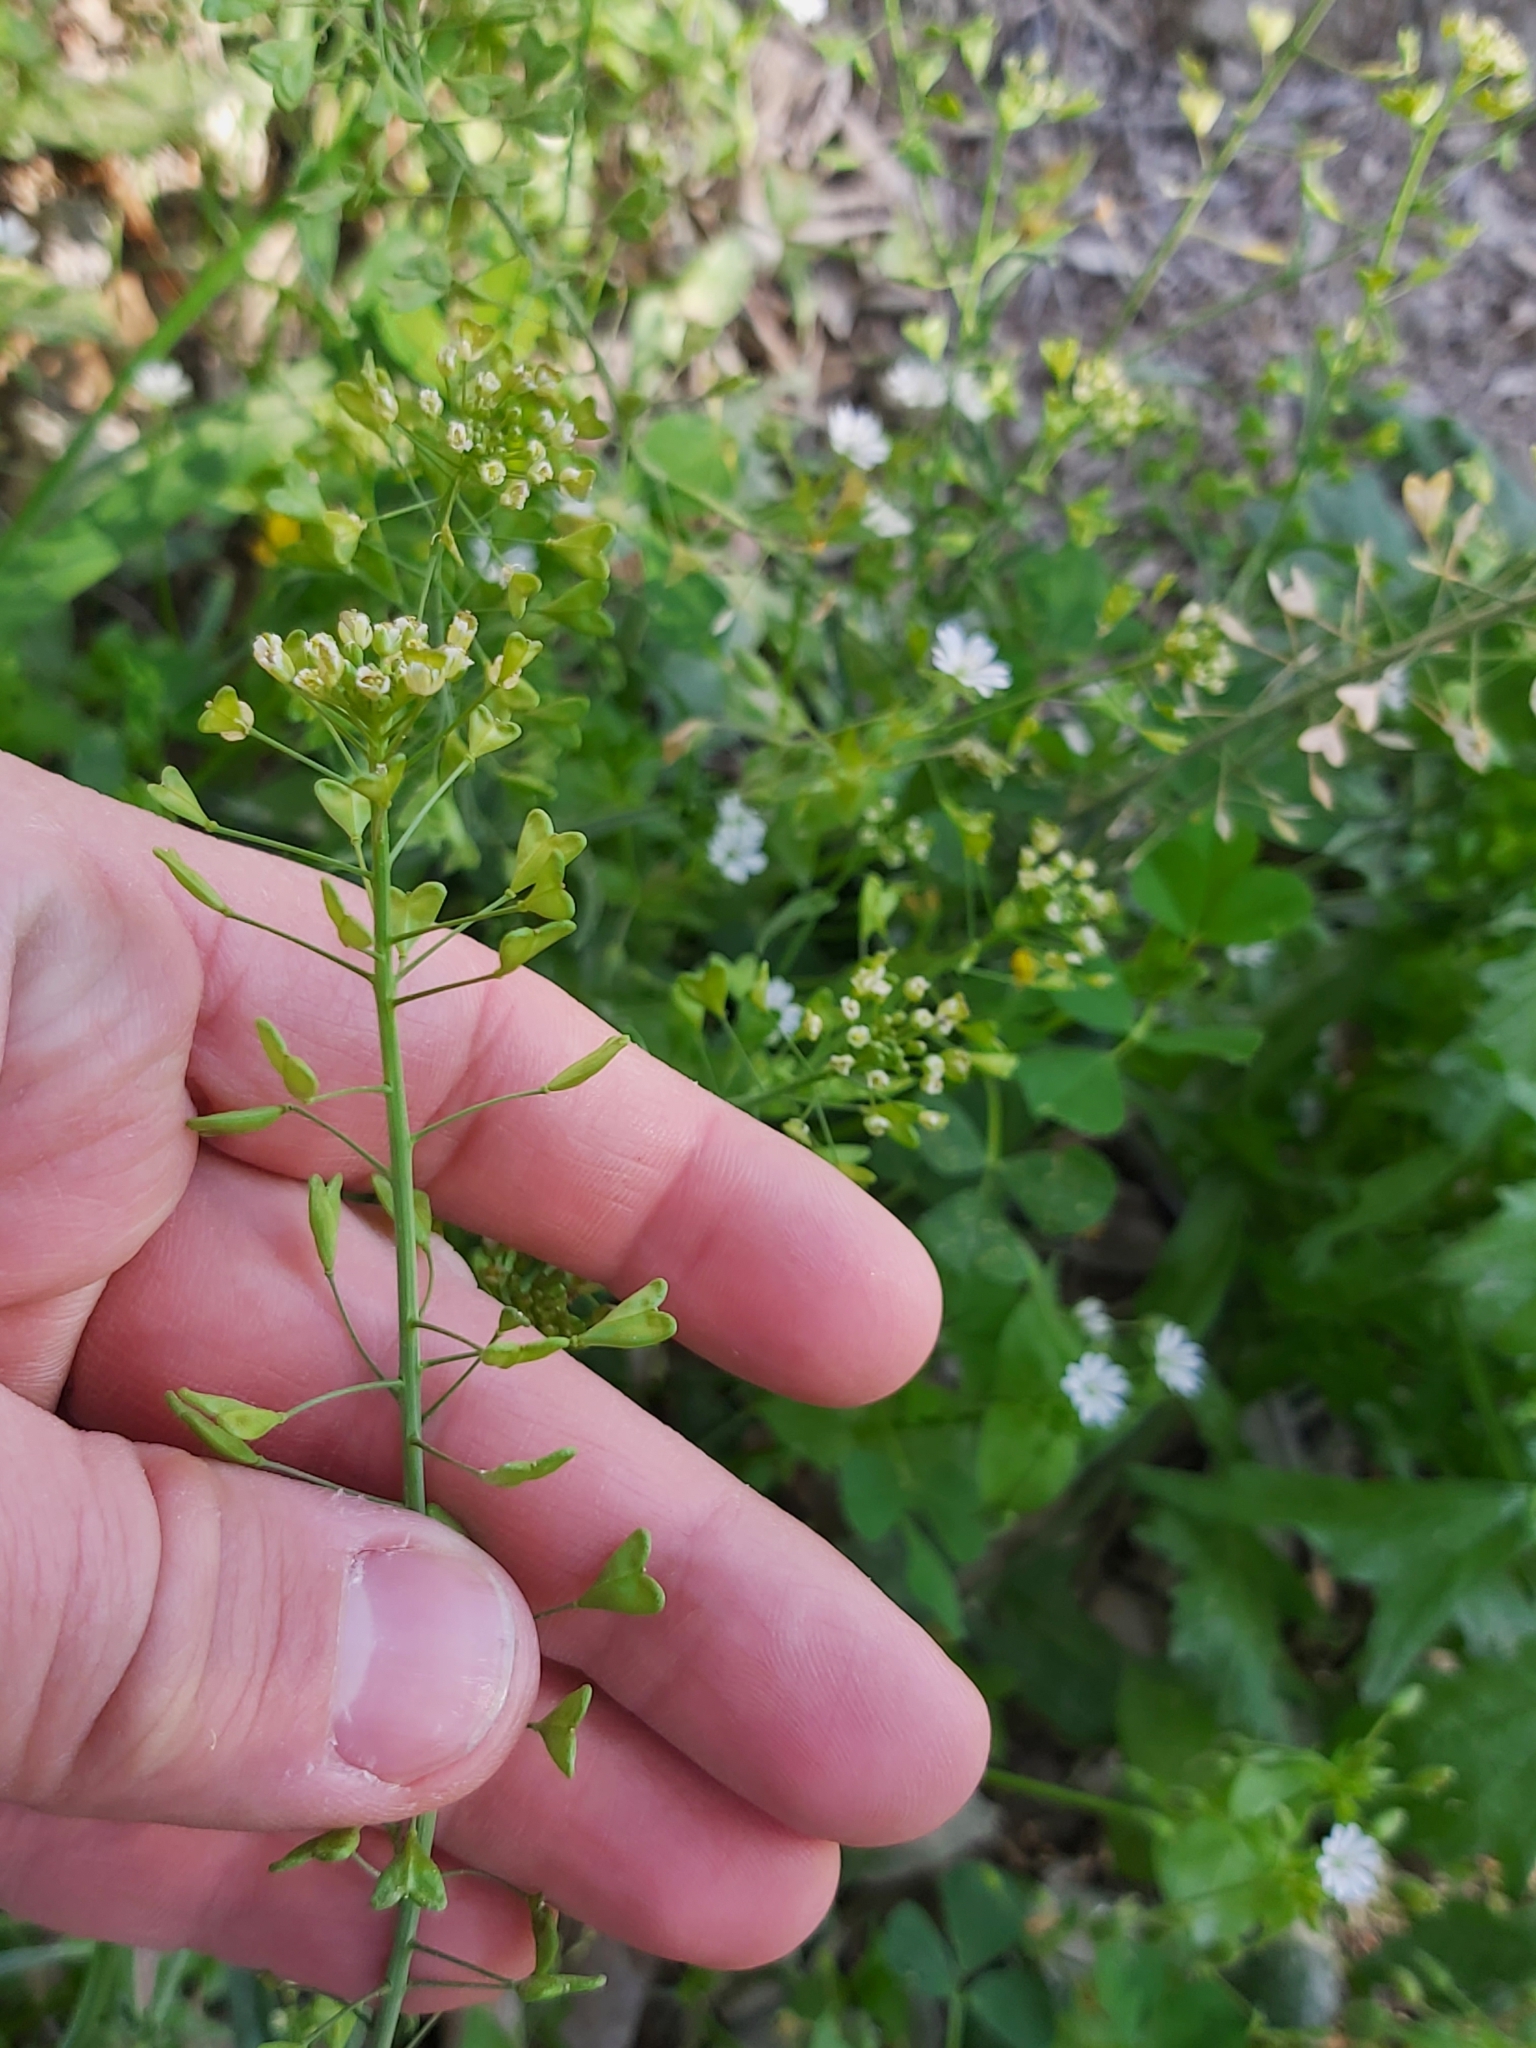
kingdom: Plantae
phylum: Tracheophyta
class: Magnoliopsida
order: Brassicales
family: Brassicaceae
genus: Capsella
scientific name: Capsella bursa-pastoris
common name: Shepherd's purse
